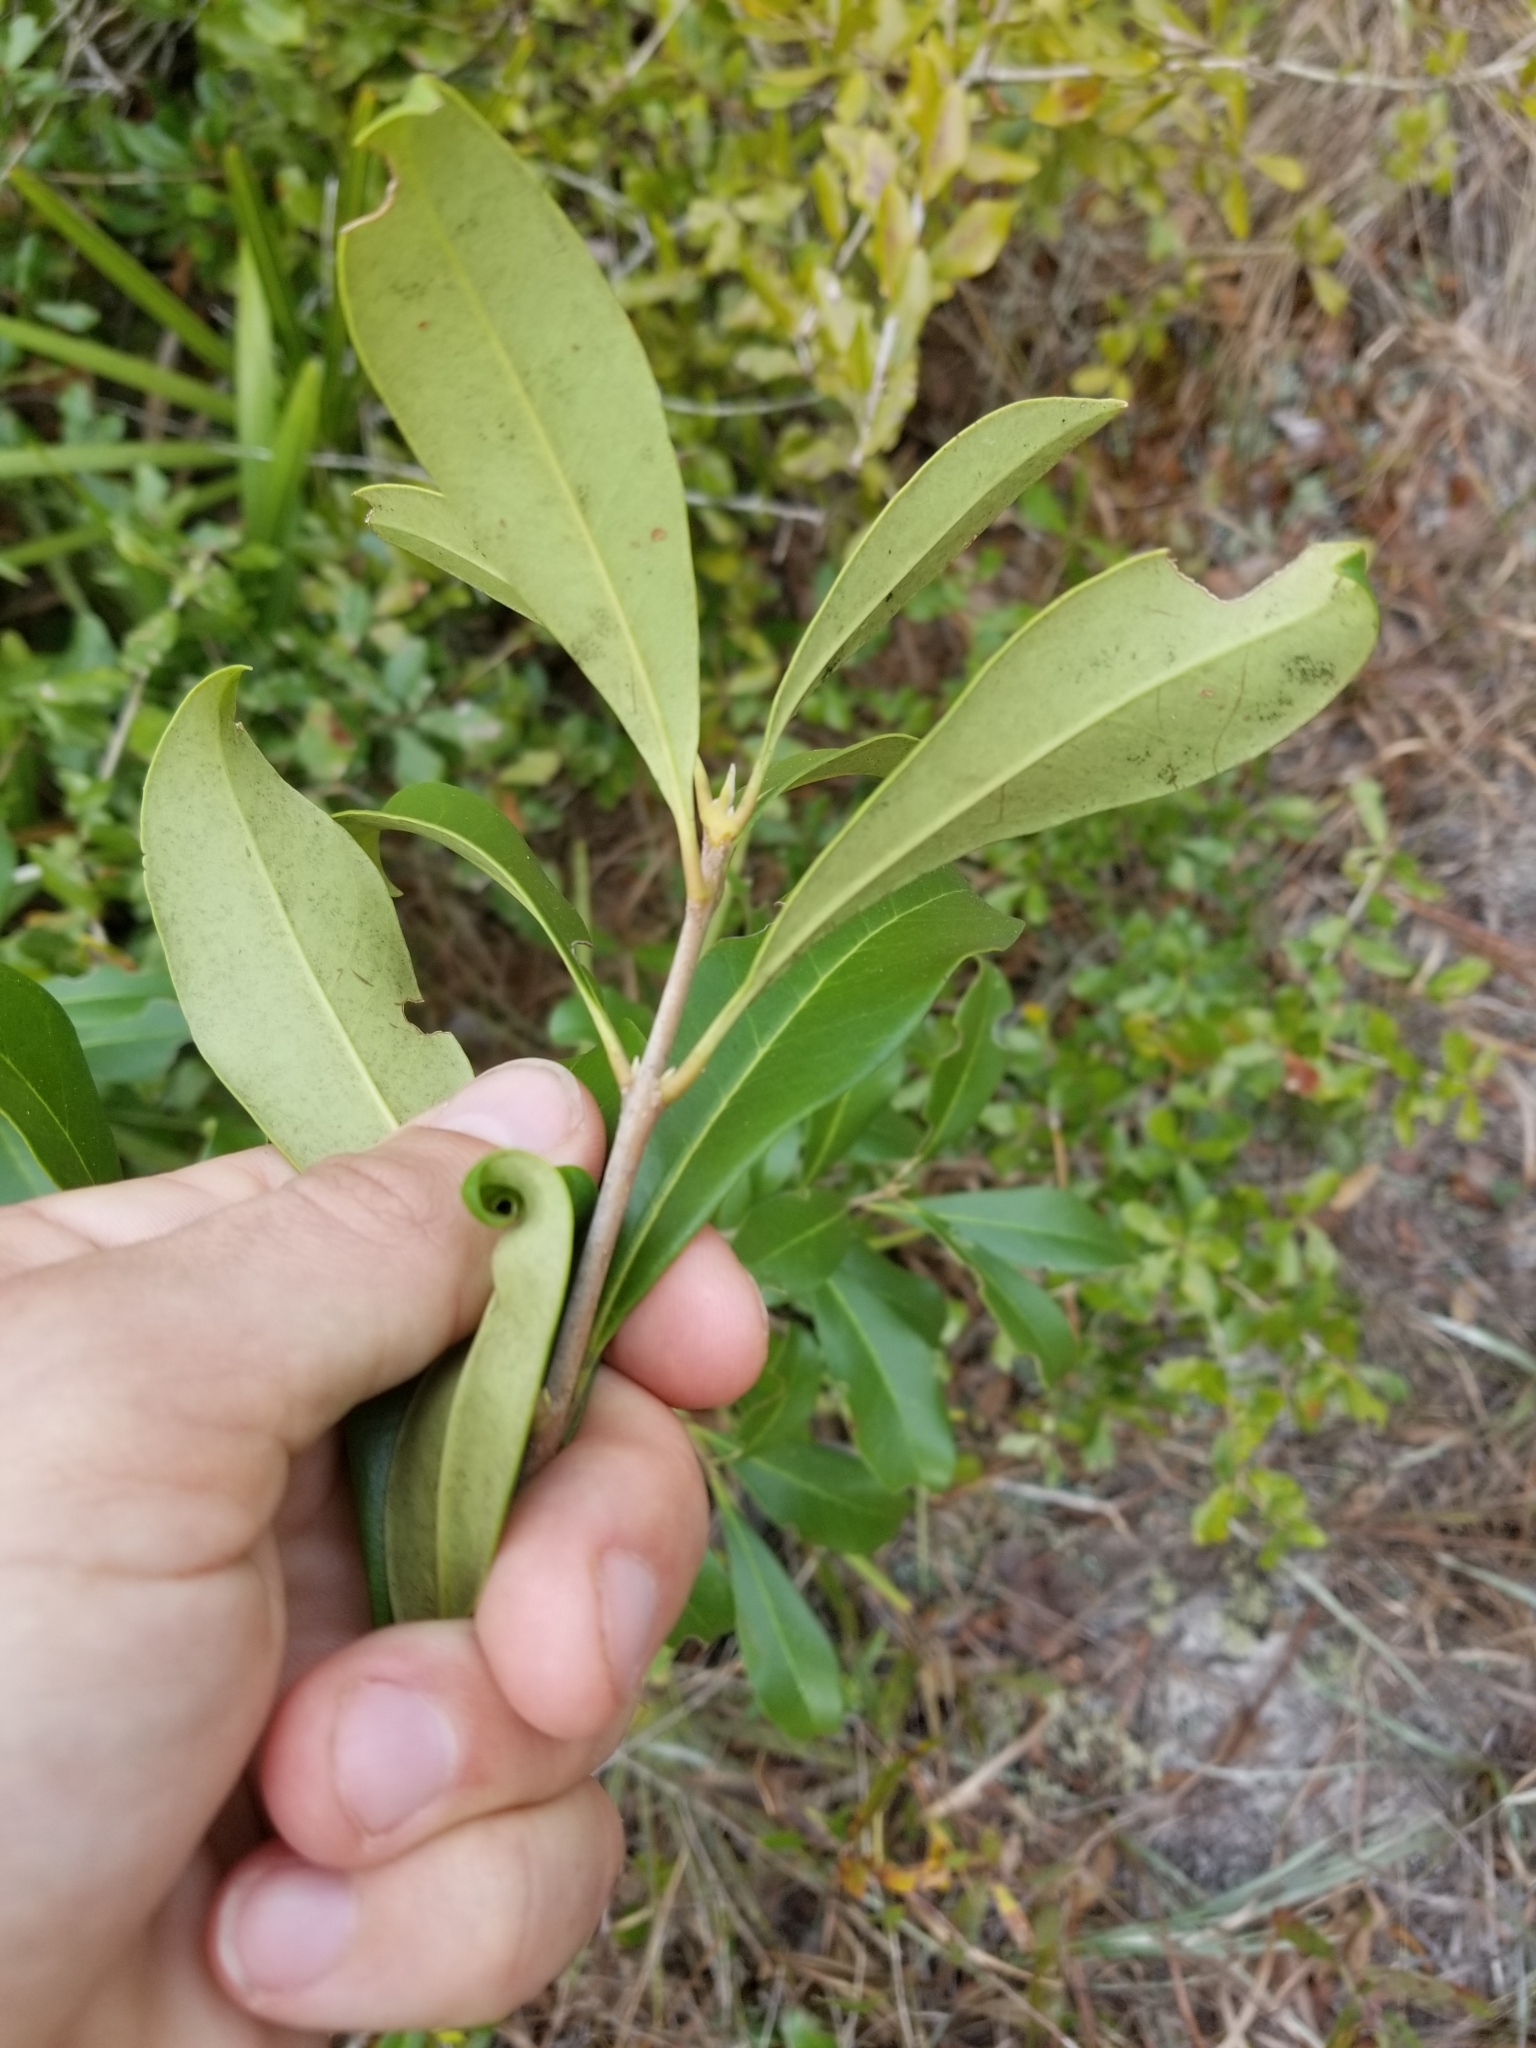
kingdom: Plantae
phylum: Tracheophyta
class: Magnoliopsida
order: Lamiales
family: Oleaceae
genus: Cartrema
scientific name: Cartrema americana
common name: Devilwood
